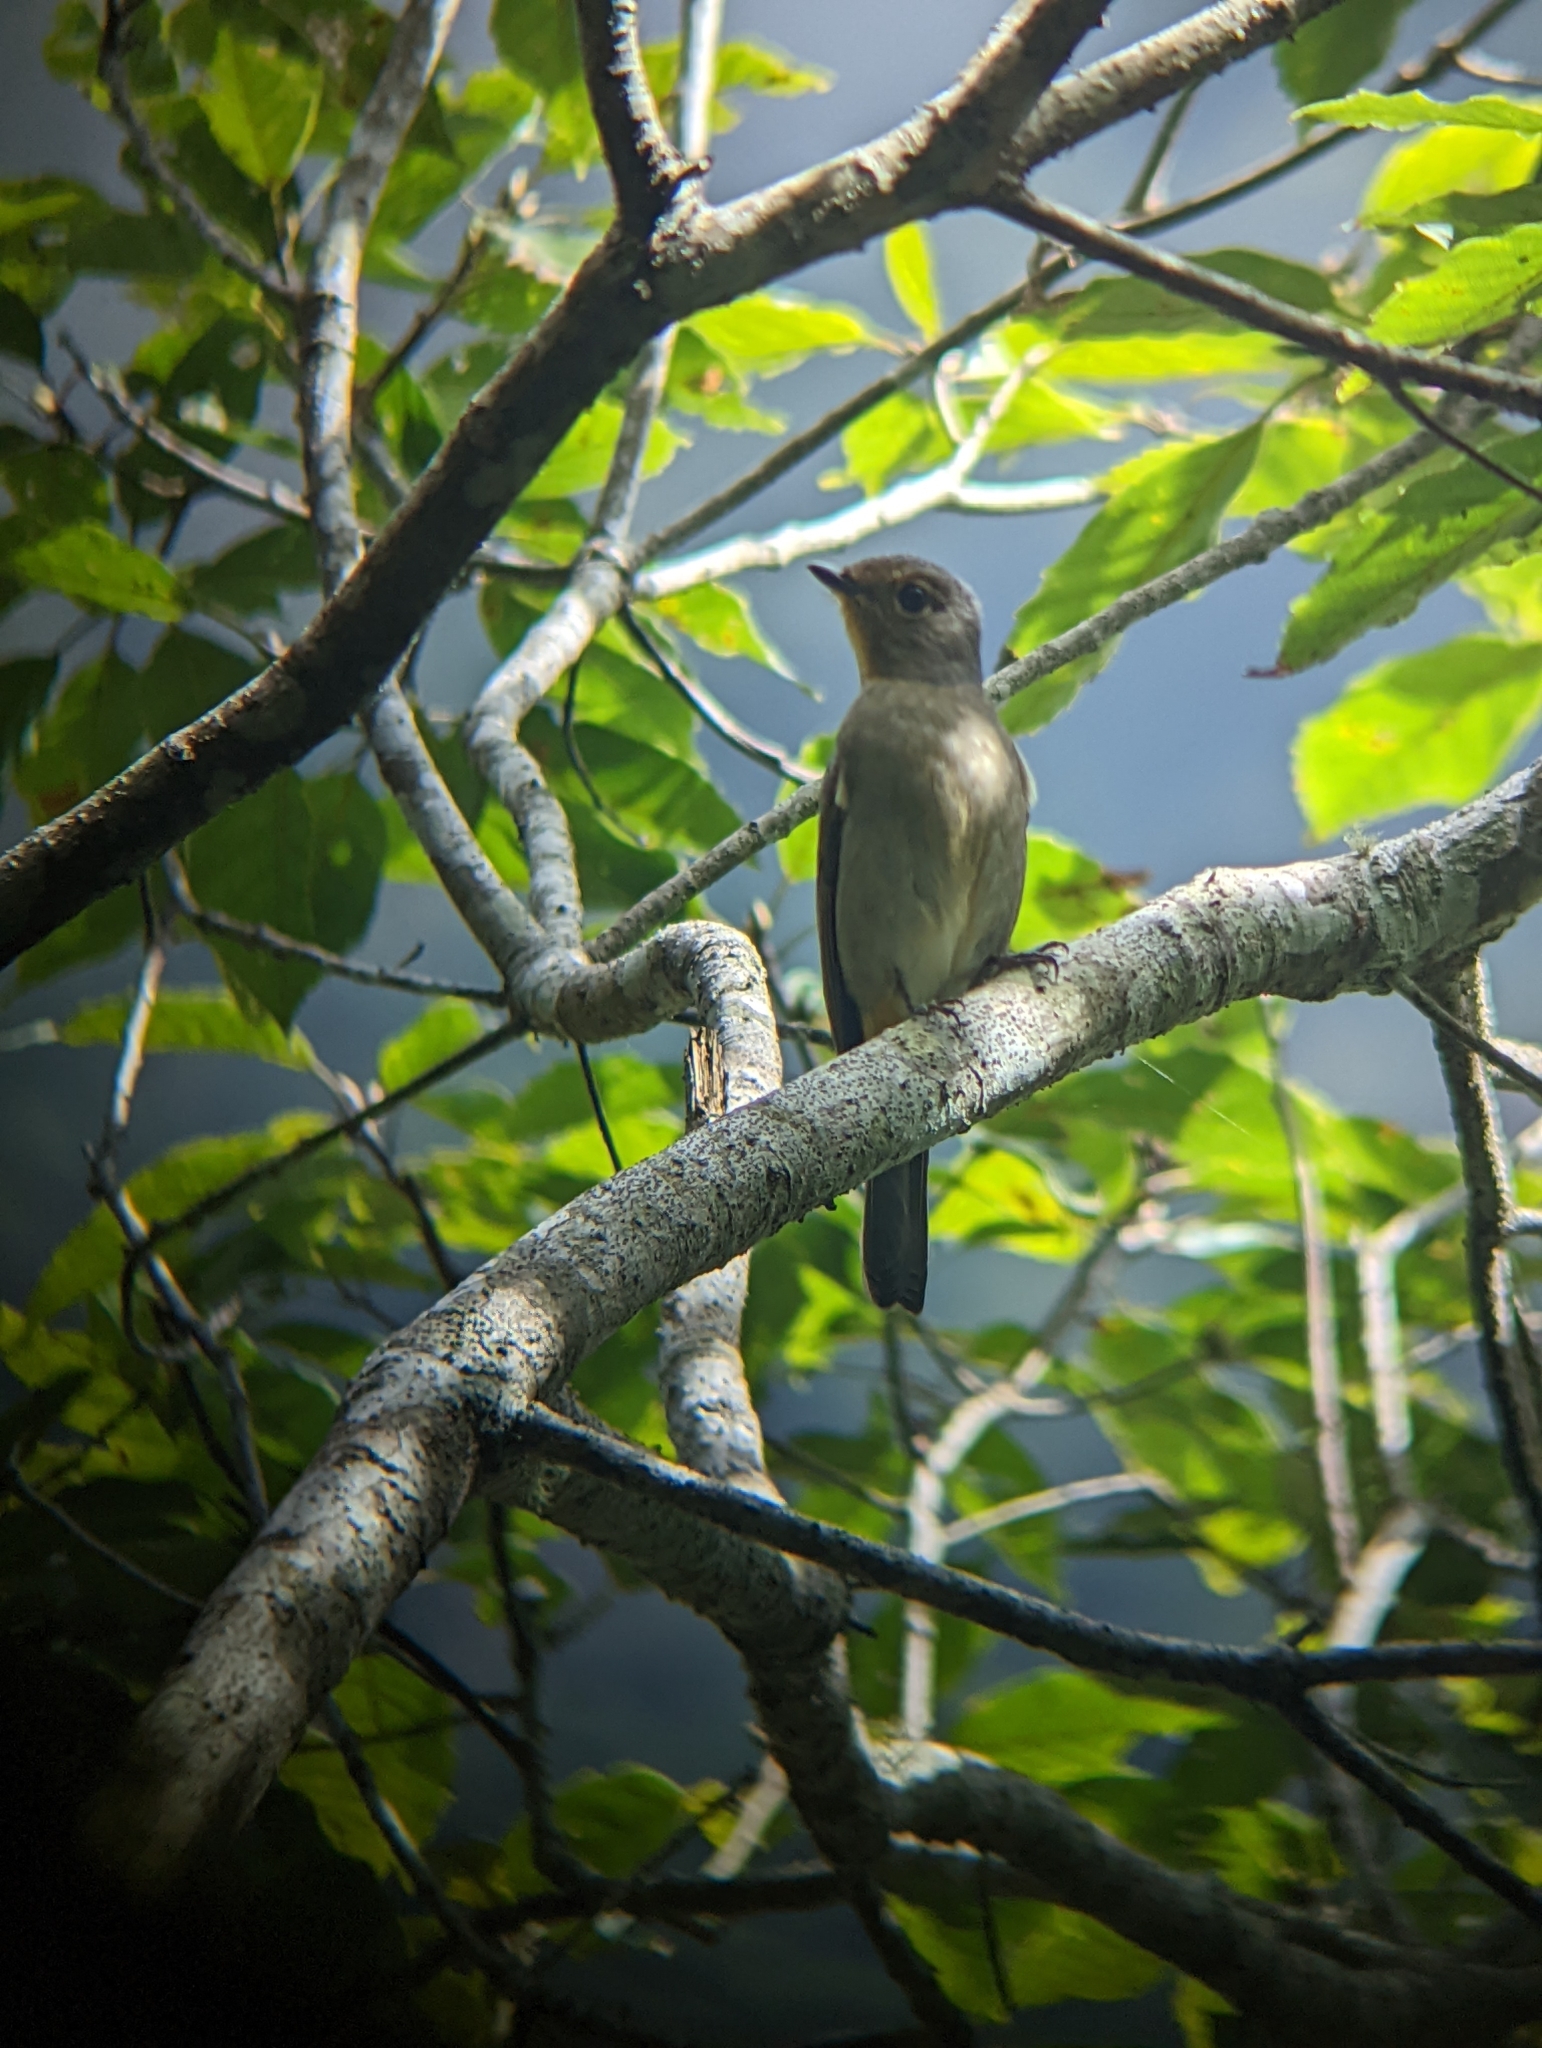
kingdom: Animalia
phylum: Chordata
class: Aves
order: Passeriformes
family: Muscicapidae
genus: Niltava
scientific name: Niltava vivida
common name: Vivid niltava
